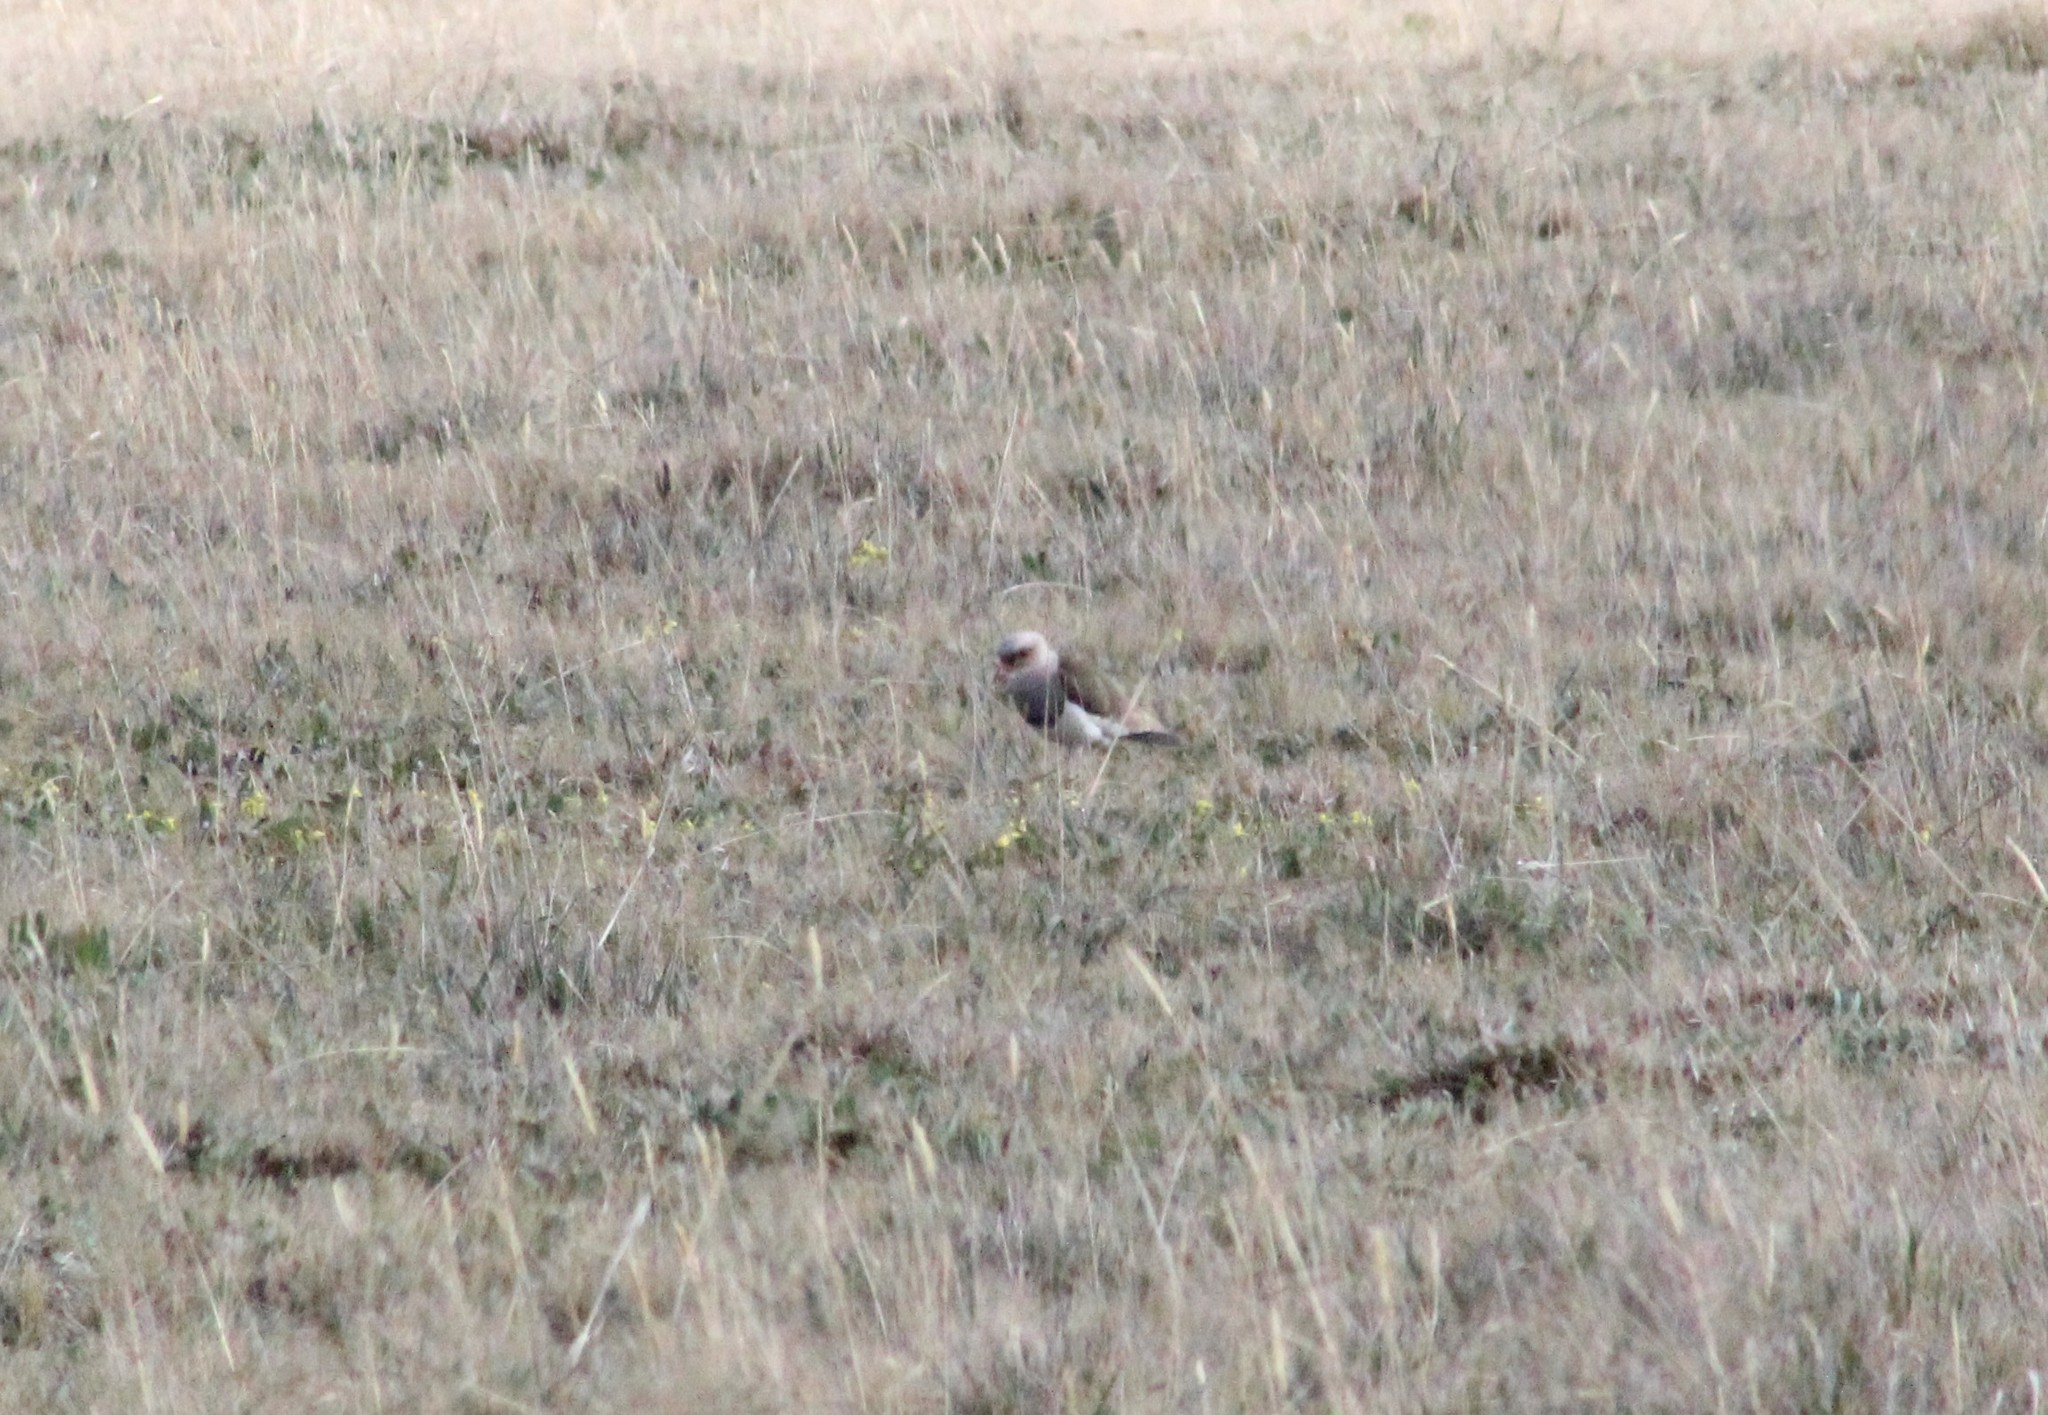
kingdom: Animalia
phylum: Chordata
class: Aves
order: Charadriiformes
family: Charadriidae
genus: Vanellus
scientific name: Vanellus resplendens
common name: Andean lapwing
